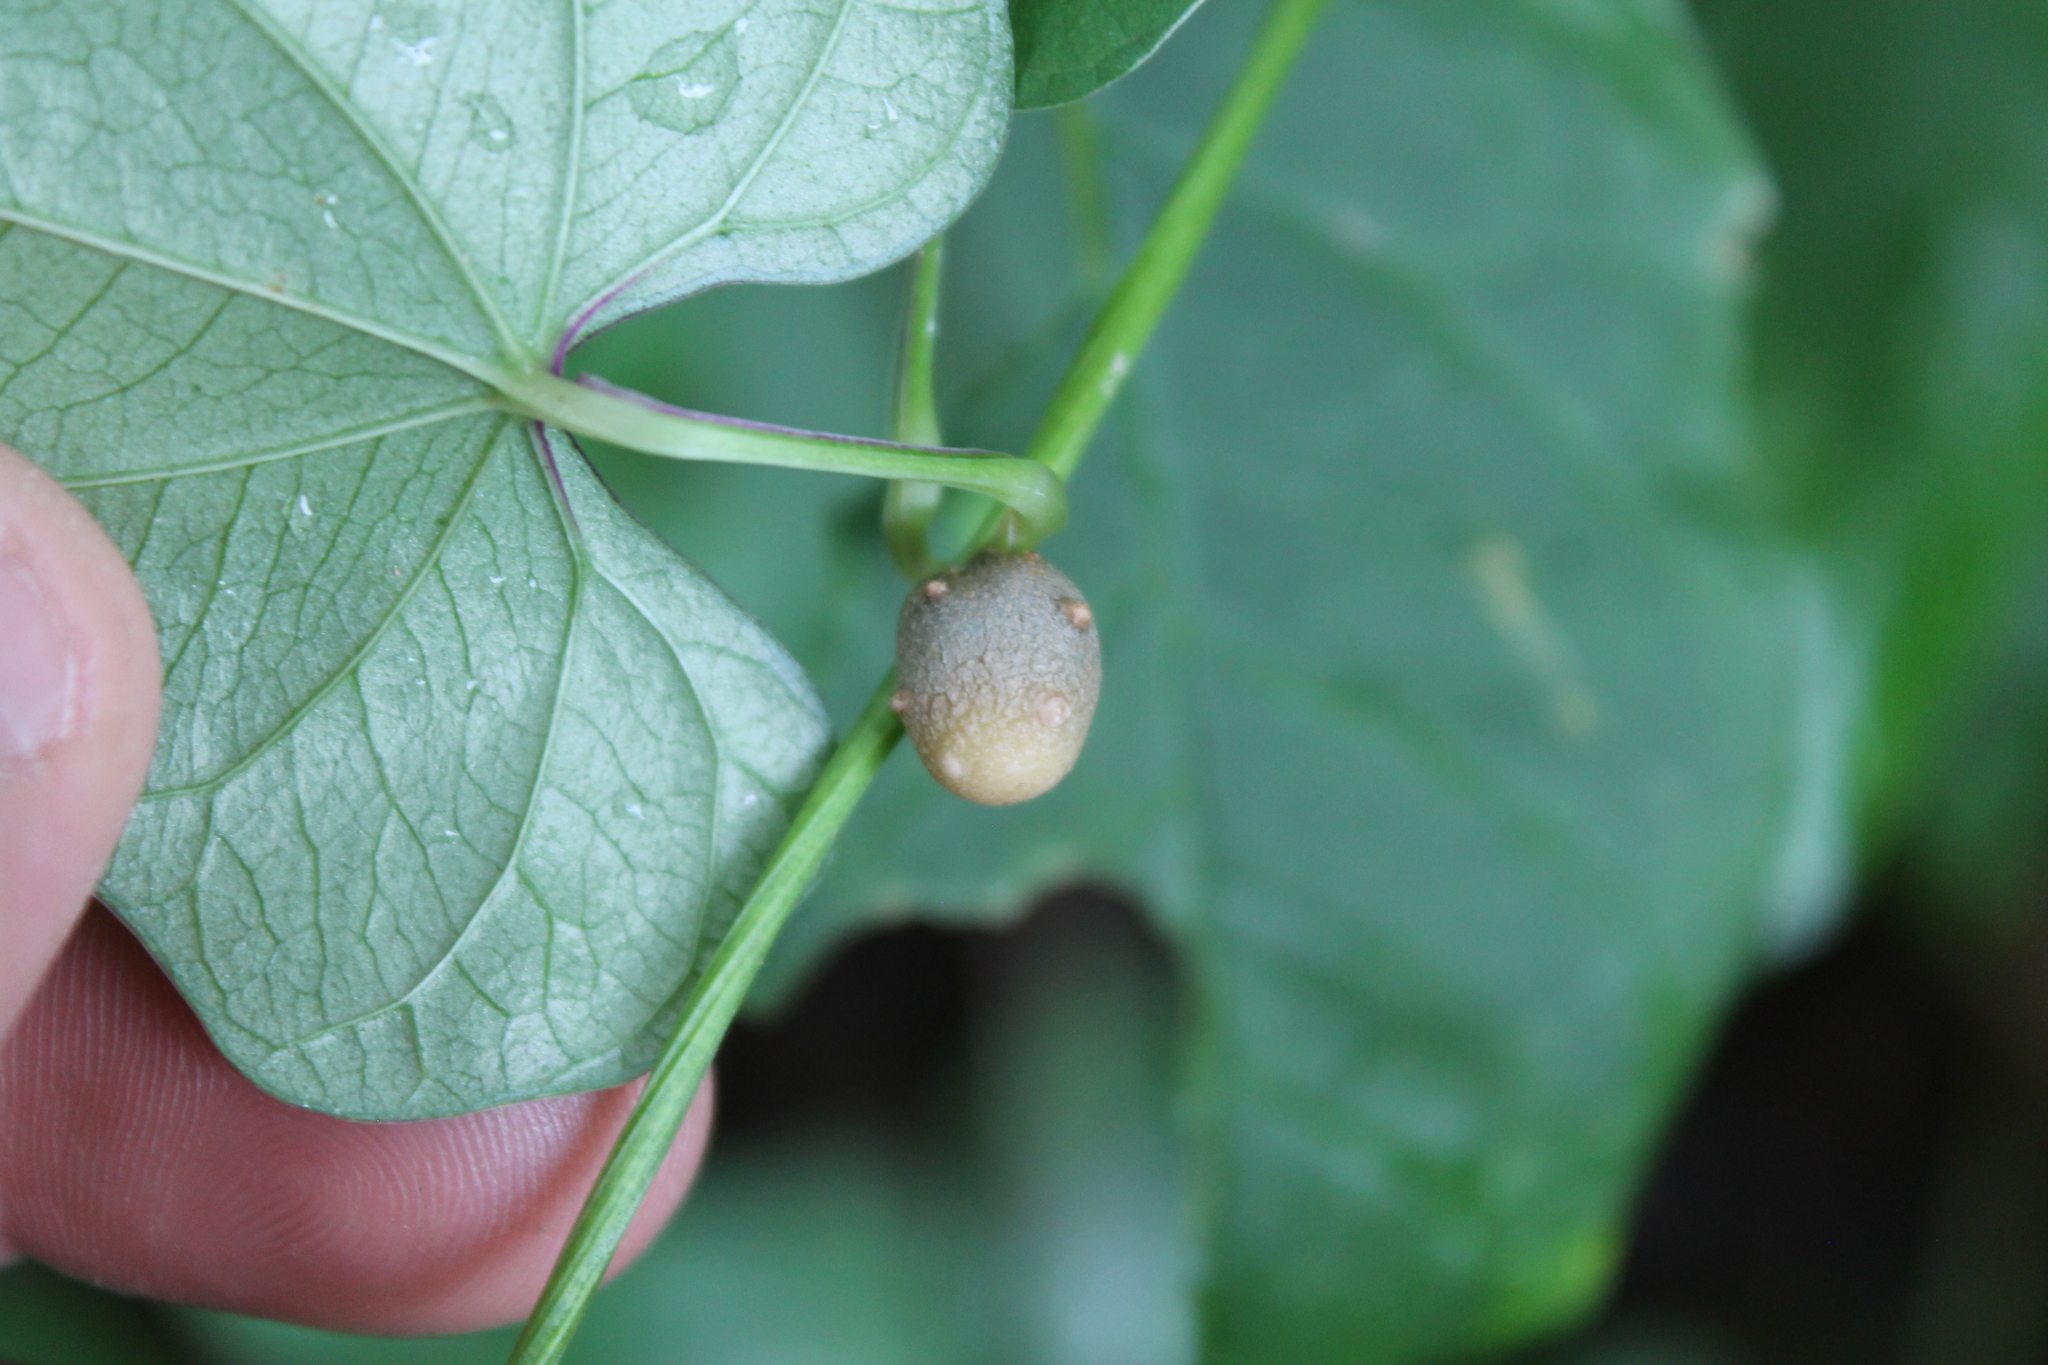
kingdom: Plantae
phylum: Tracheophyta
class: Liliopsida
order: Dioscoreales
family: Dioscoreaceae
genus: Dioscorea
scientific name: Dioscorea polystachya
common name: Chinese yam
